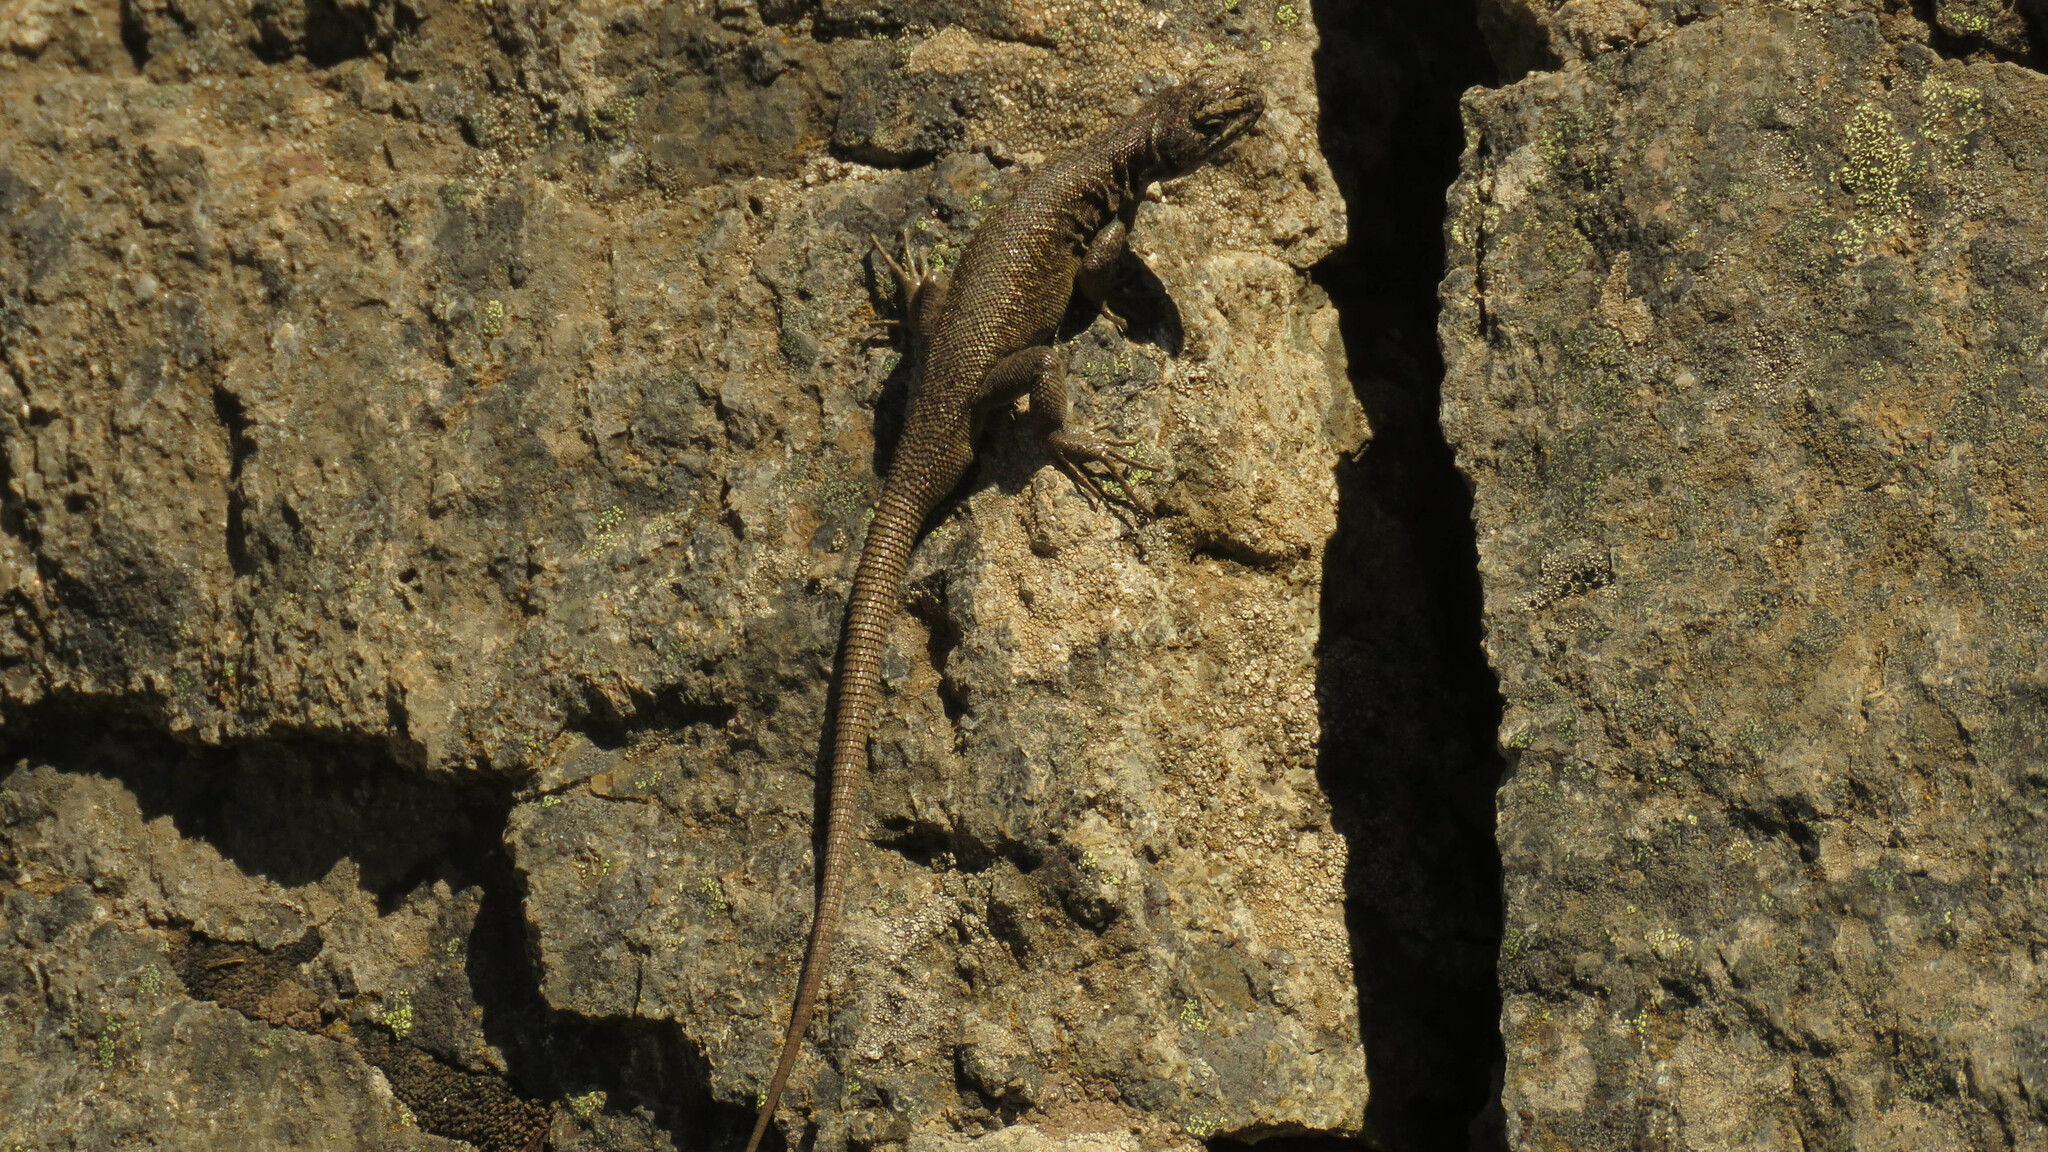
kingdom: Animalia
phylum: Chordata
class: Squamata
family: Liolaemidae
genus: Liolaemus
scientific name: Liolaemus elongatus
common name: Elongate tree iguana
